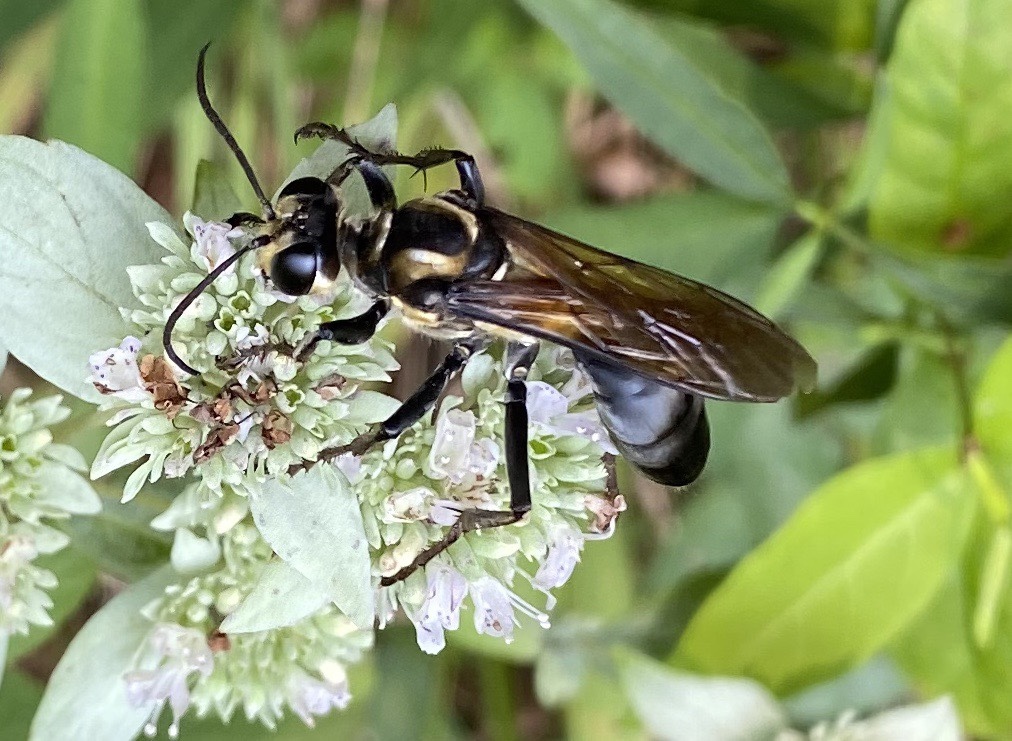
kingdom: Animalia
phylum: Arthropoda
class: Insecta
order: Hymenoptera
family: Sphecidae
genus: Sphex
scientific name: Sphex habenus
